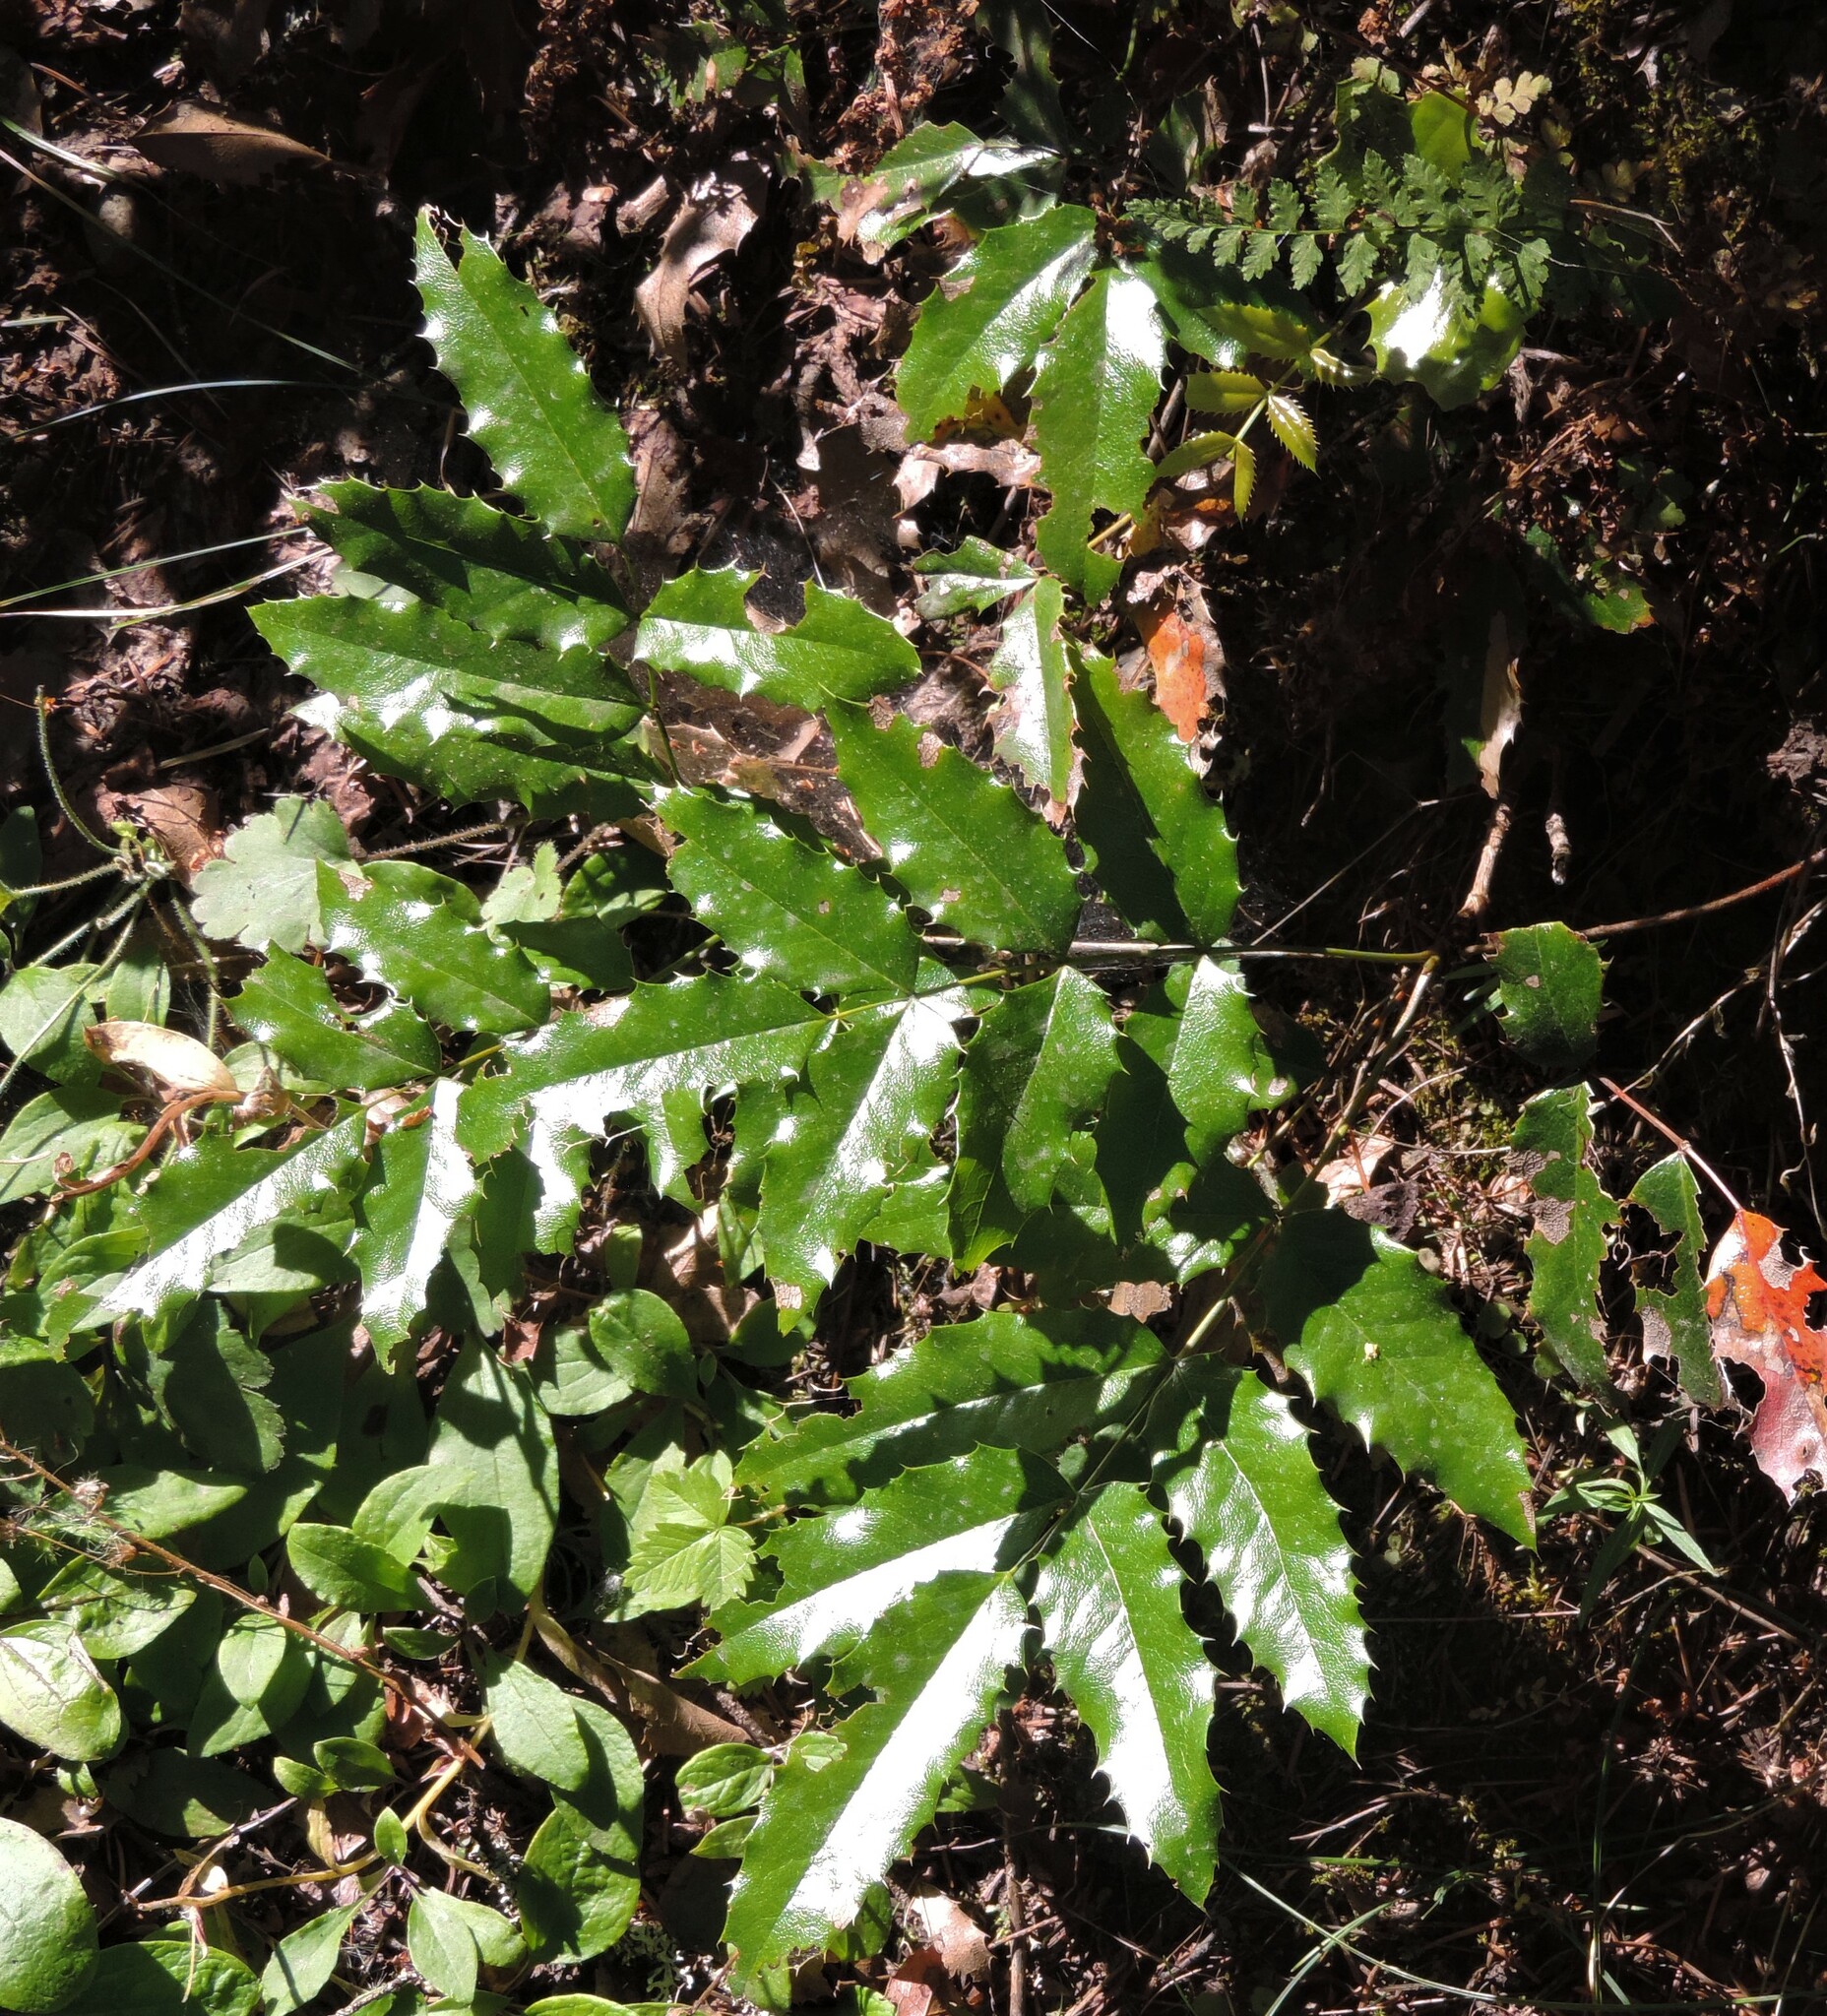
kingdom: Plantae
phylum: Tracheophyta
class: Magnoliopsida
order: Ranunculales
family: Berberidaceae
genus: Mahonia
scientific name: Mahonia aquifolium
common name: Oregon-grape
